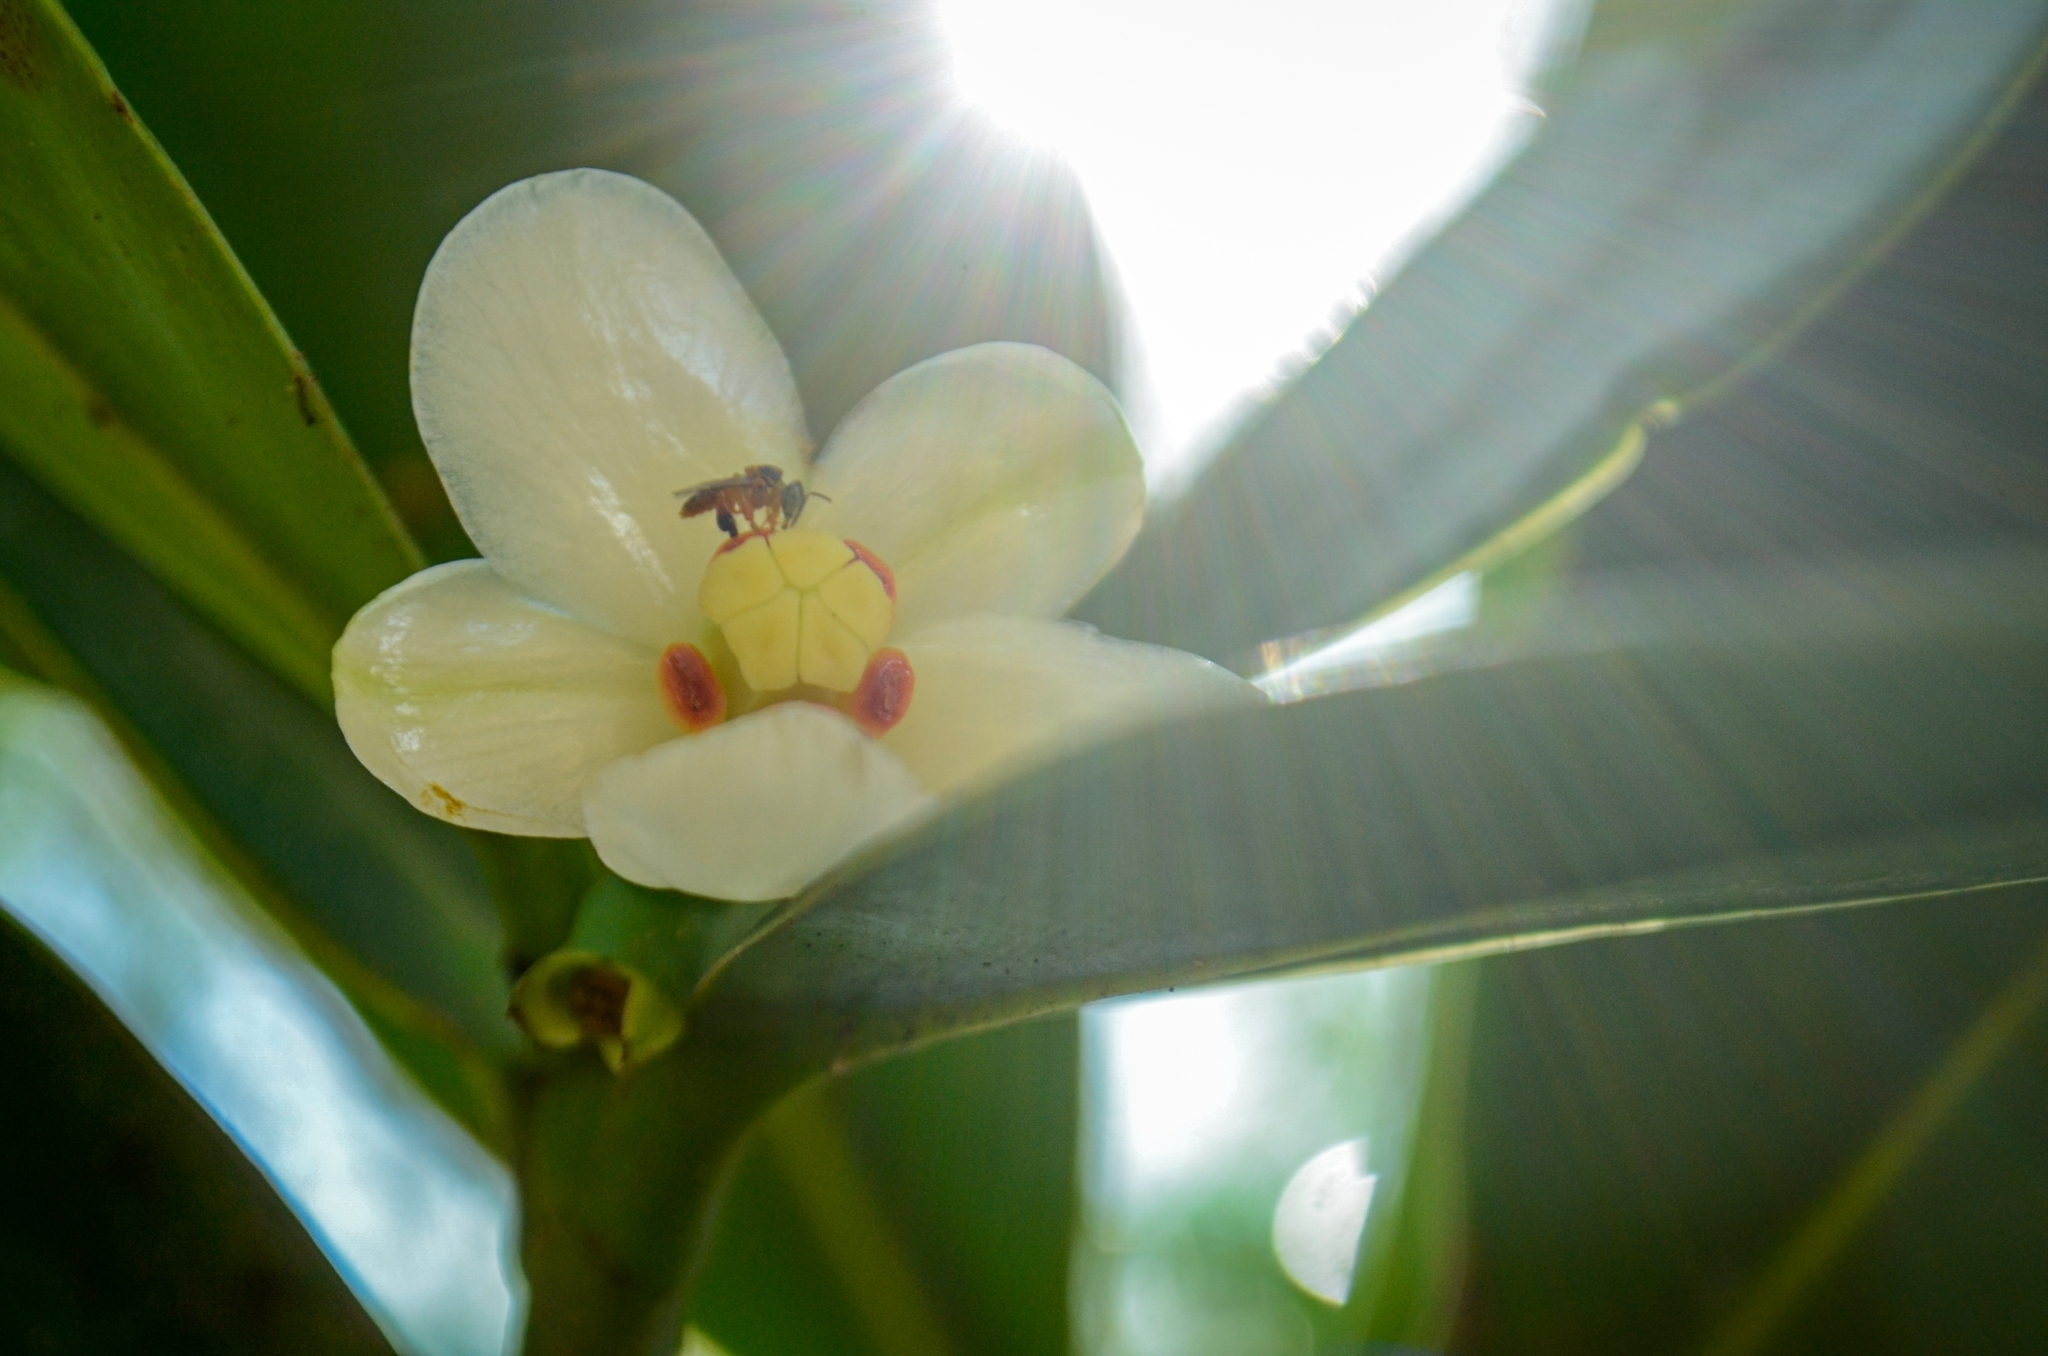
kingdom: Animalia
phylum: Arthropoda
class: Insecta
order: Hymenoptera
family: Apidae
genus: Tetragonisca
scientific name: Tetragonisca fiebrigi
